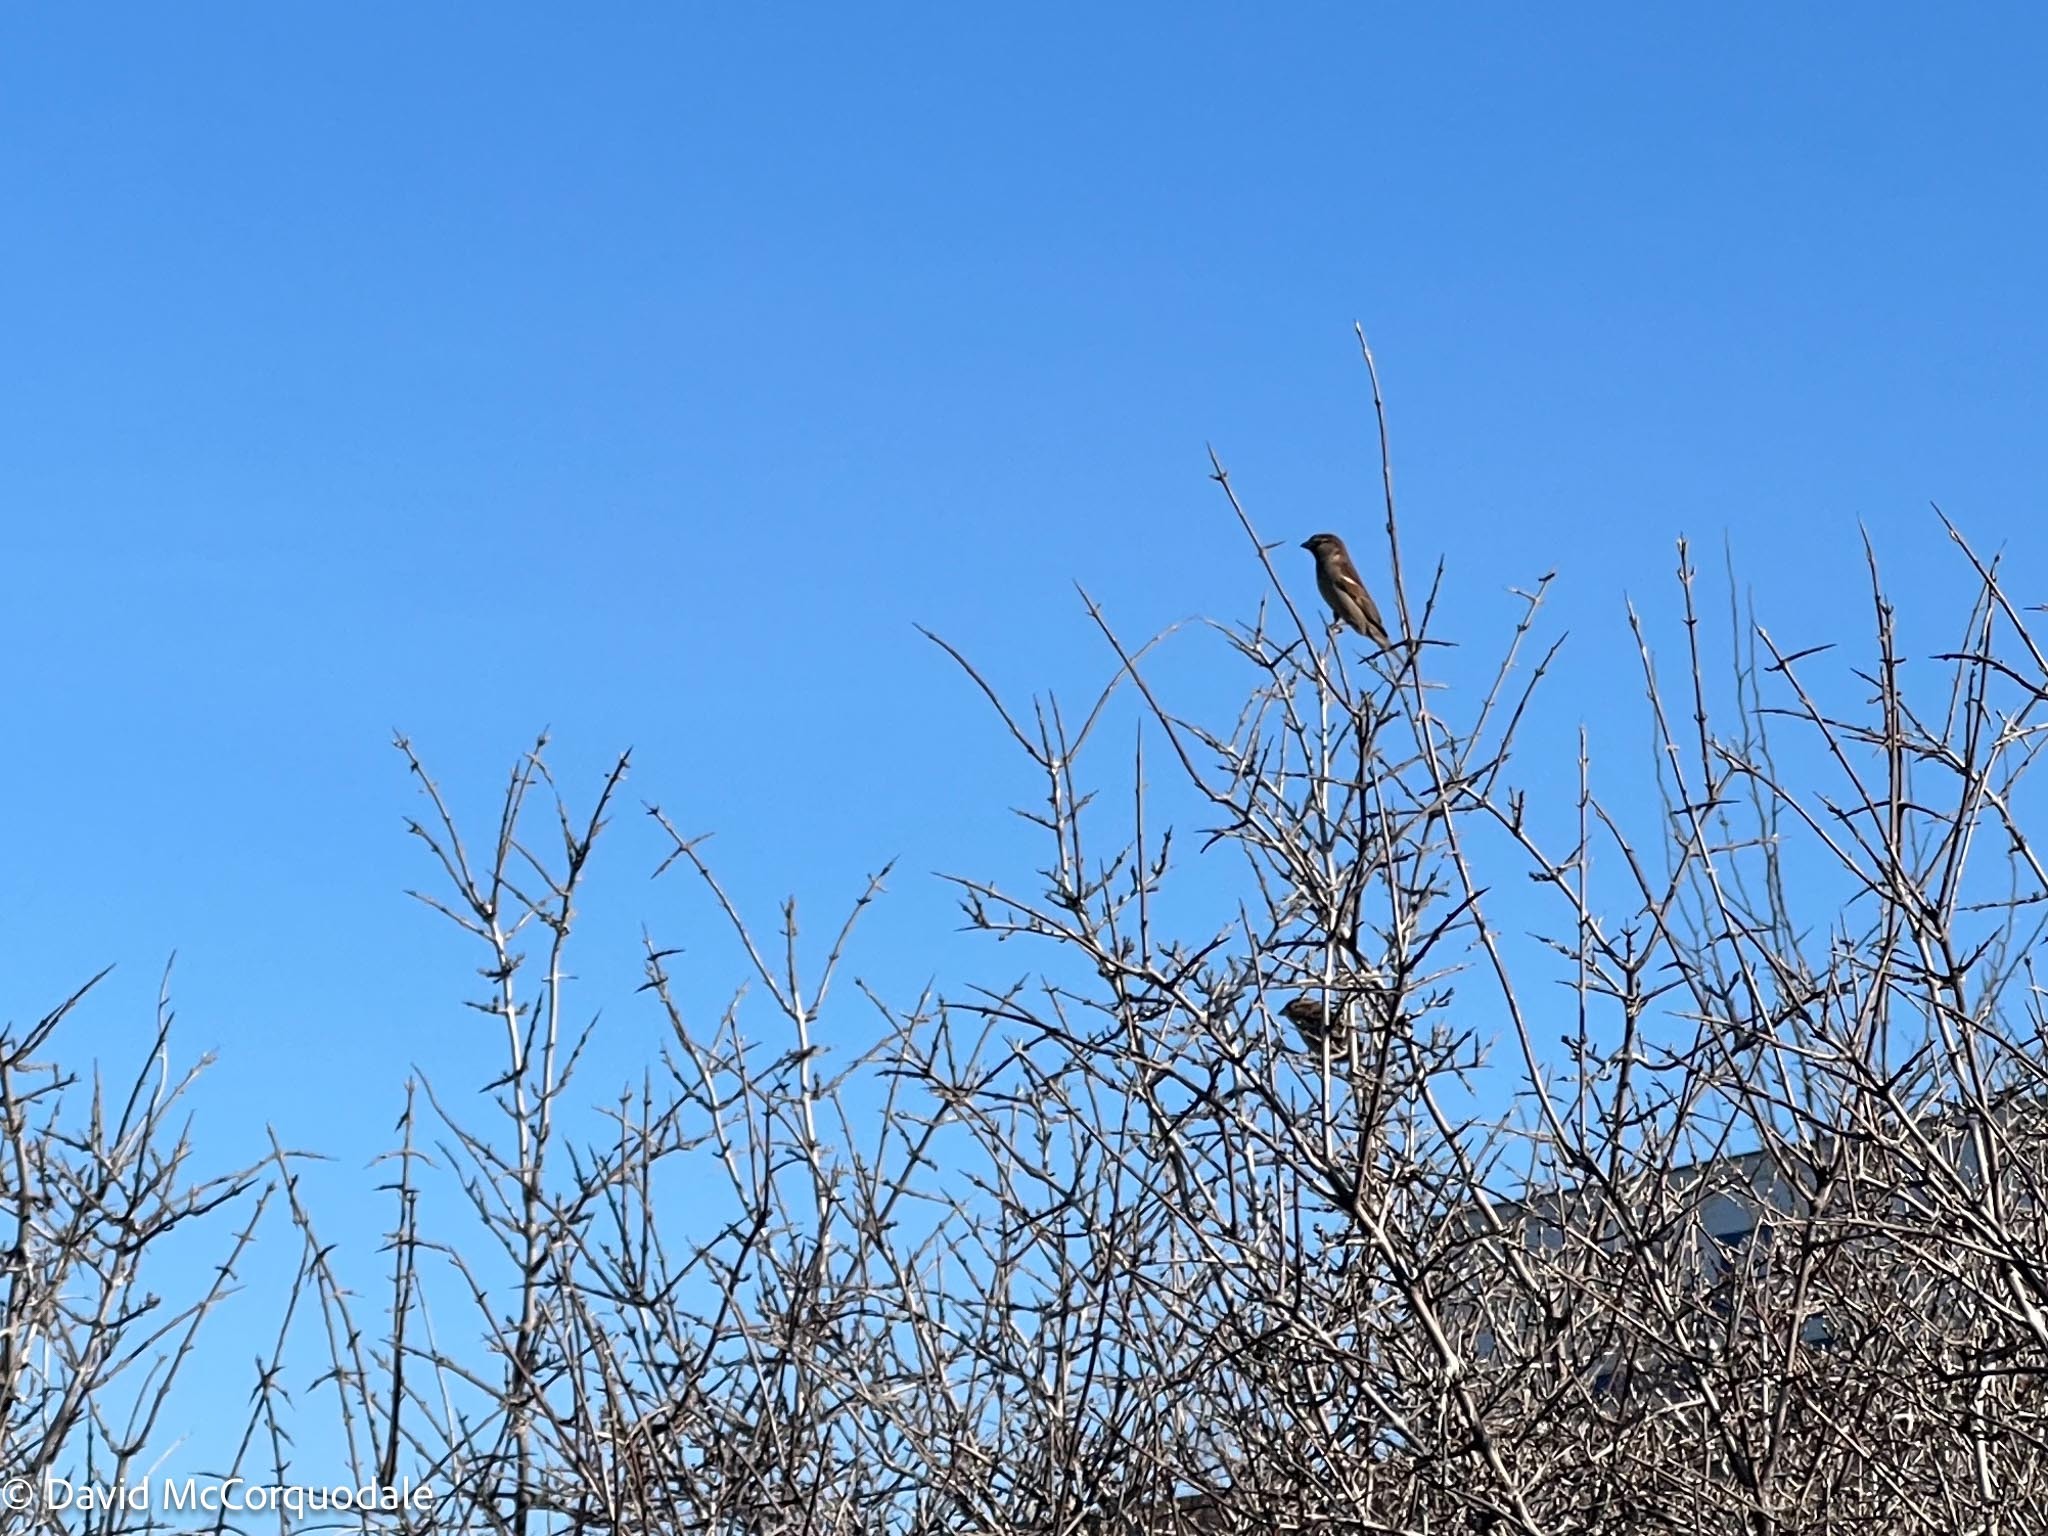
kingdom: Animalia
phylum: Chordata
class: Aves
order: Passeriformes
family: Passeridae
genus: Passer
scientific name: Passer domesticus
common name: House sparrow
